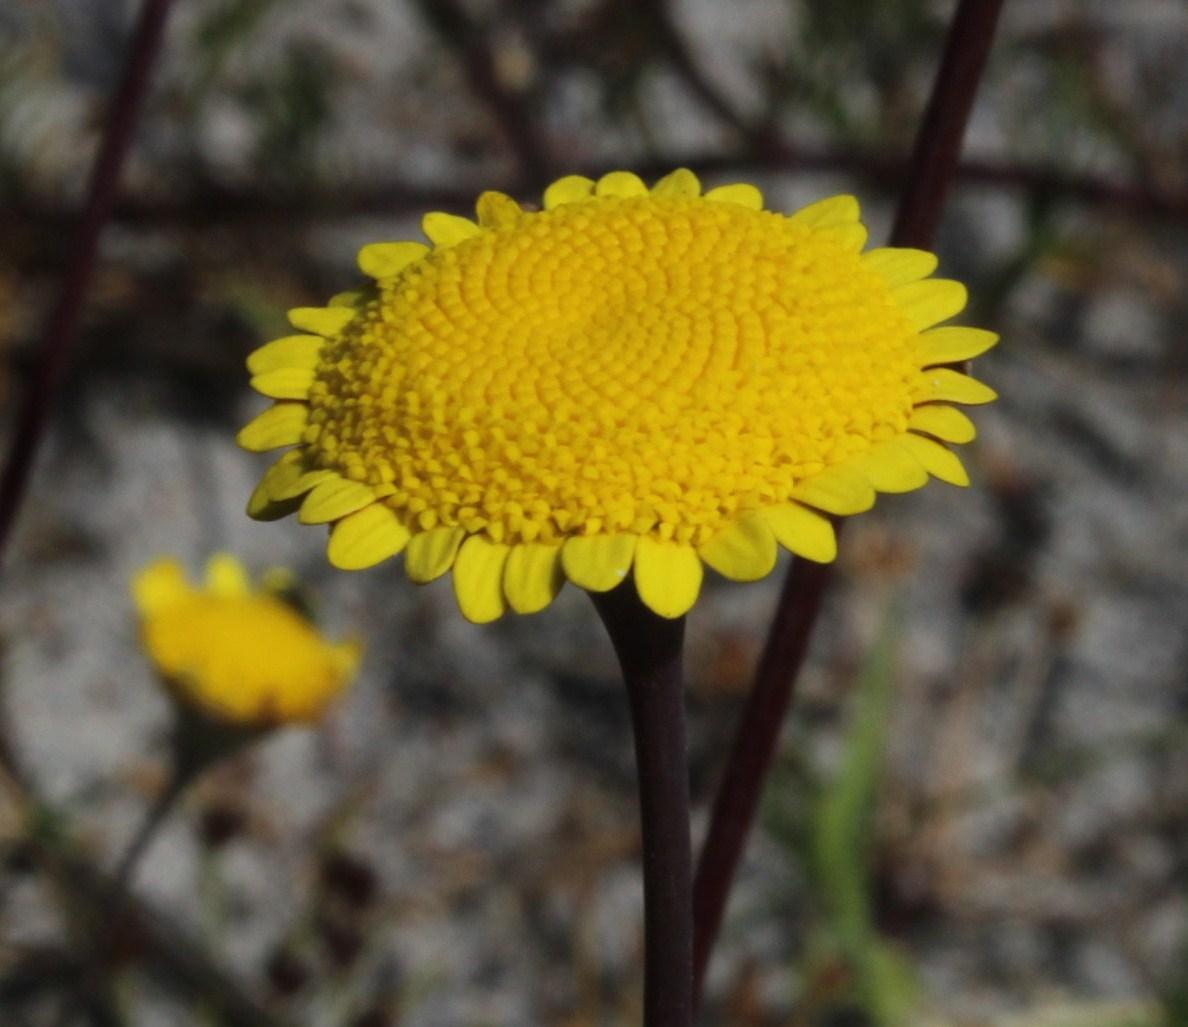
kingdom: Plantae
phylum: Tracheophyta
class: Magnoliopsida
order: Asterales
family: Asteraceae
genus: Cotula
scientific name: Cotula pruinosa
